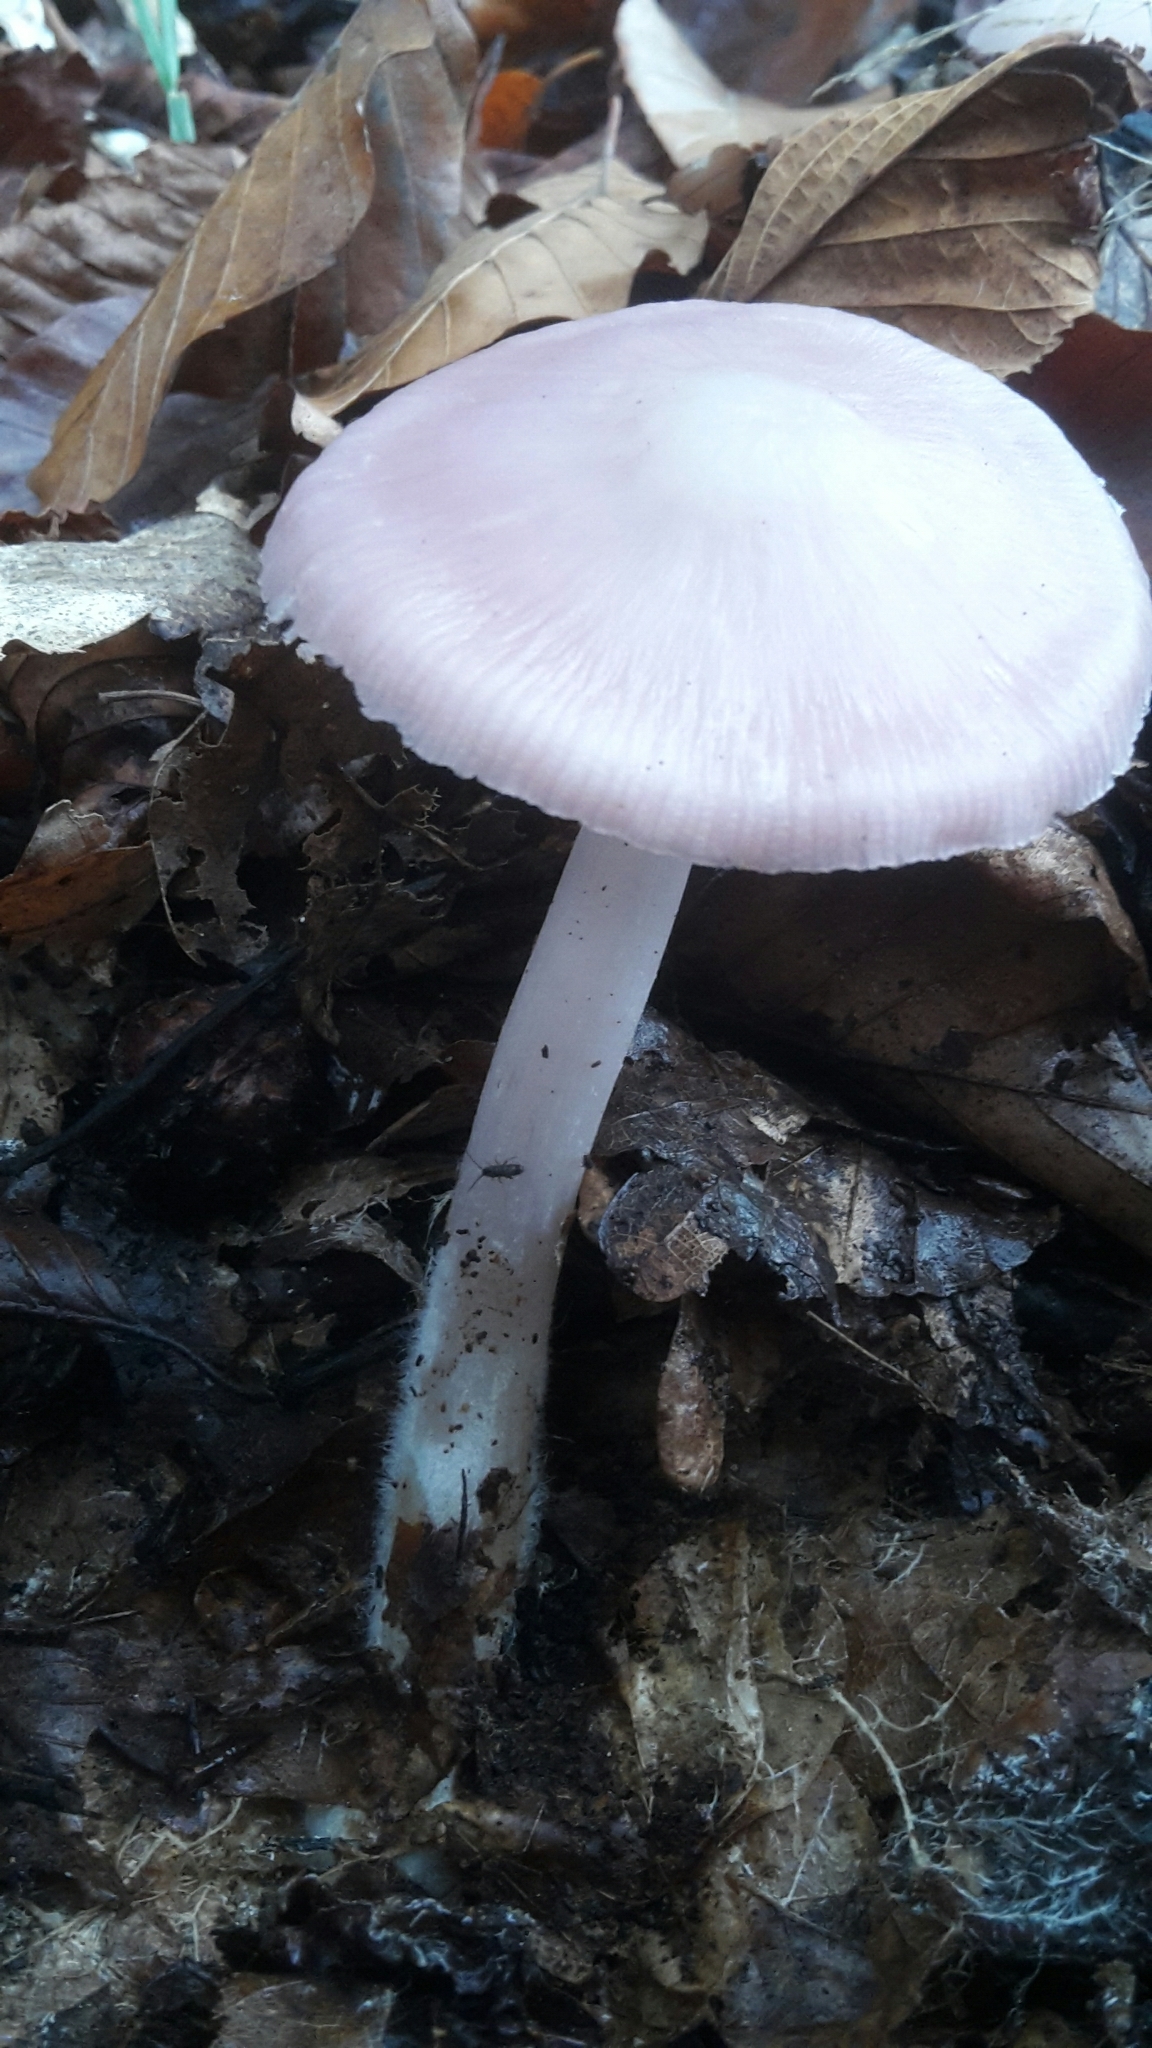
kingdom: Fungi
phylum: Basidiomycota
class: Agaricomycetes
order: Agaricales
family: Mycenaceae
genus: Mycena
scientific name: Mycena pura
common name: Lilac bonnet
